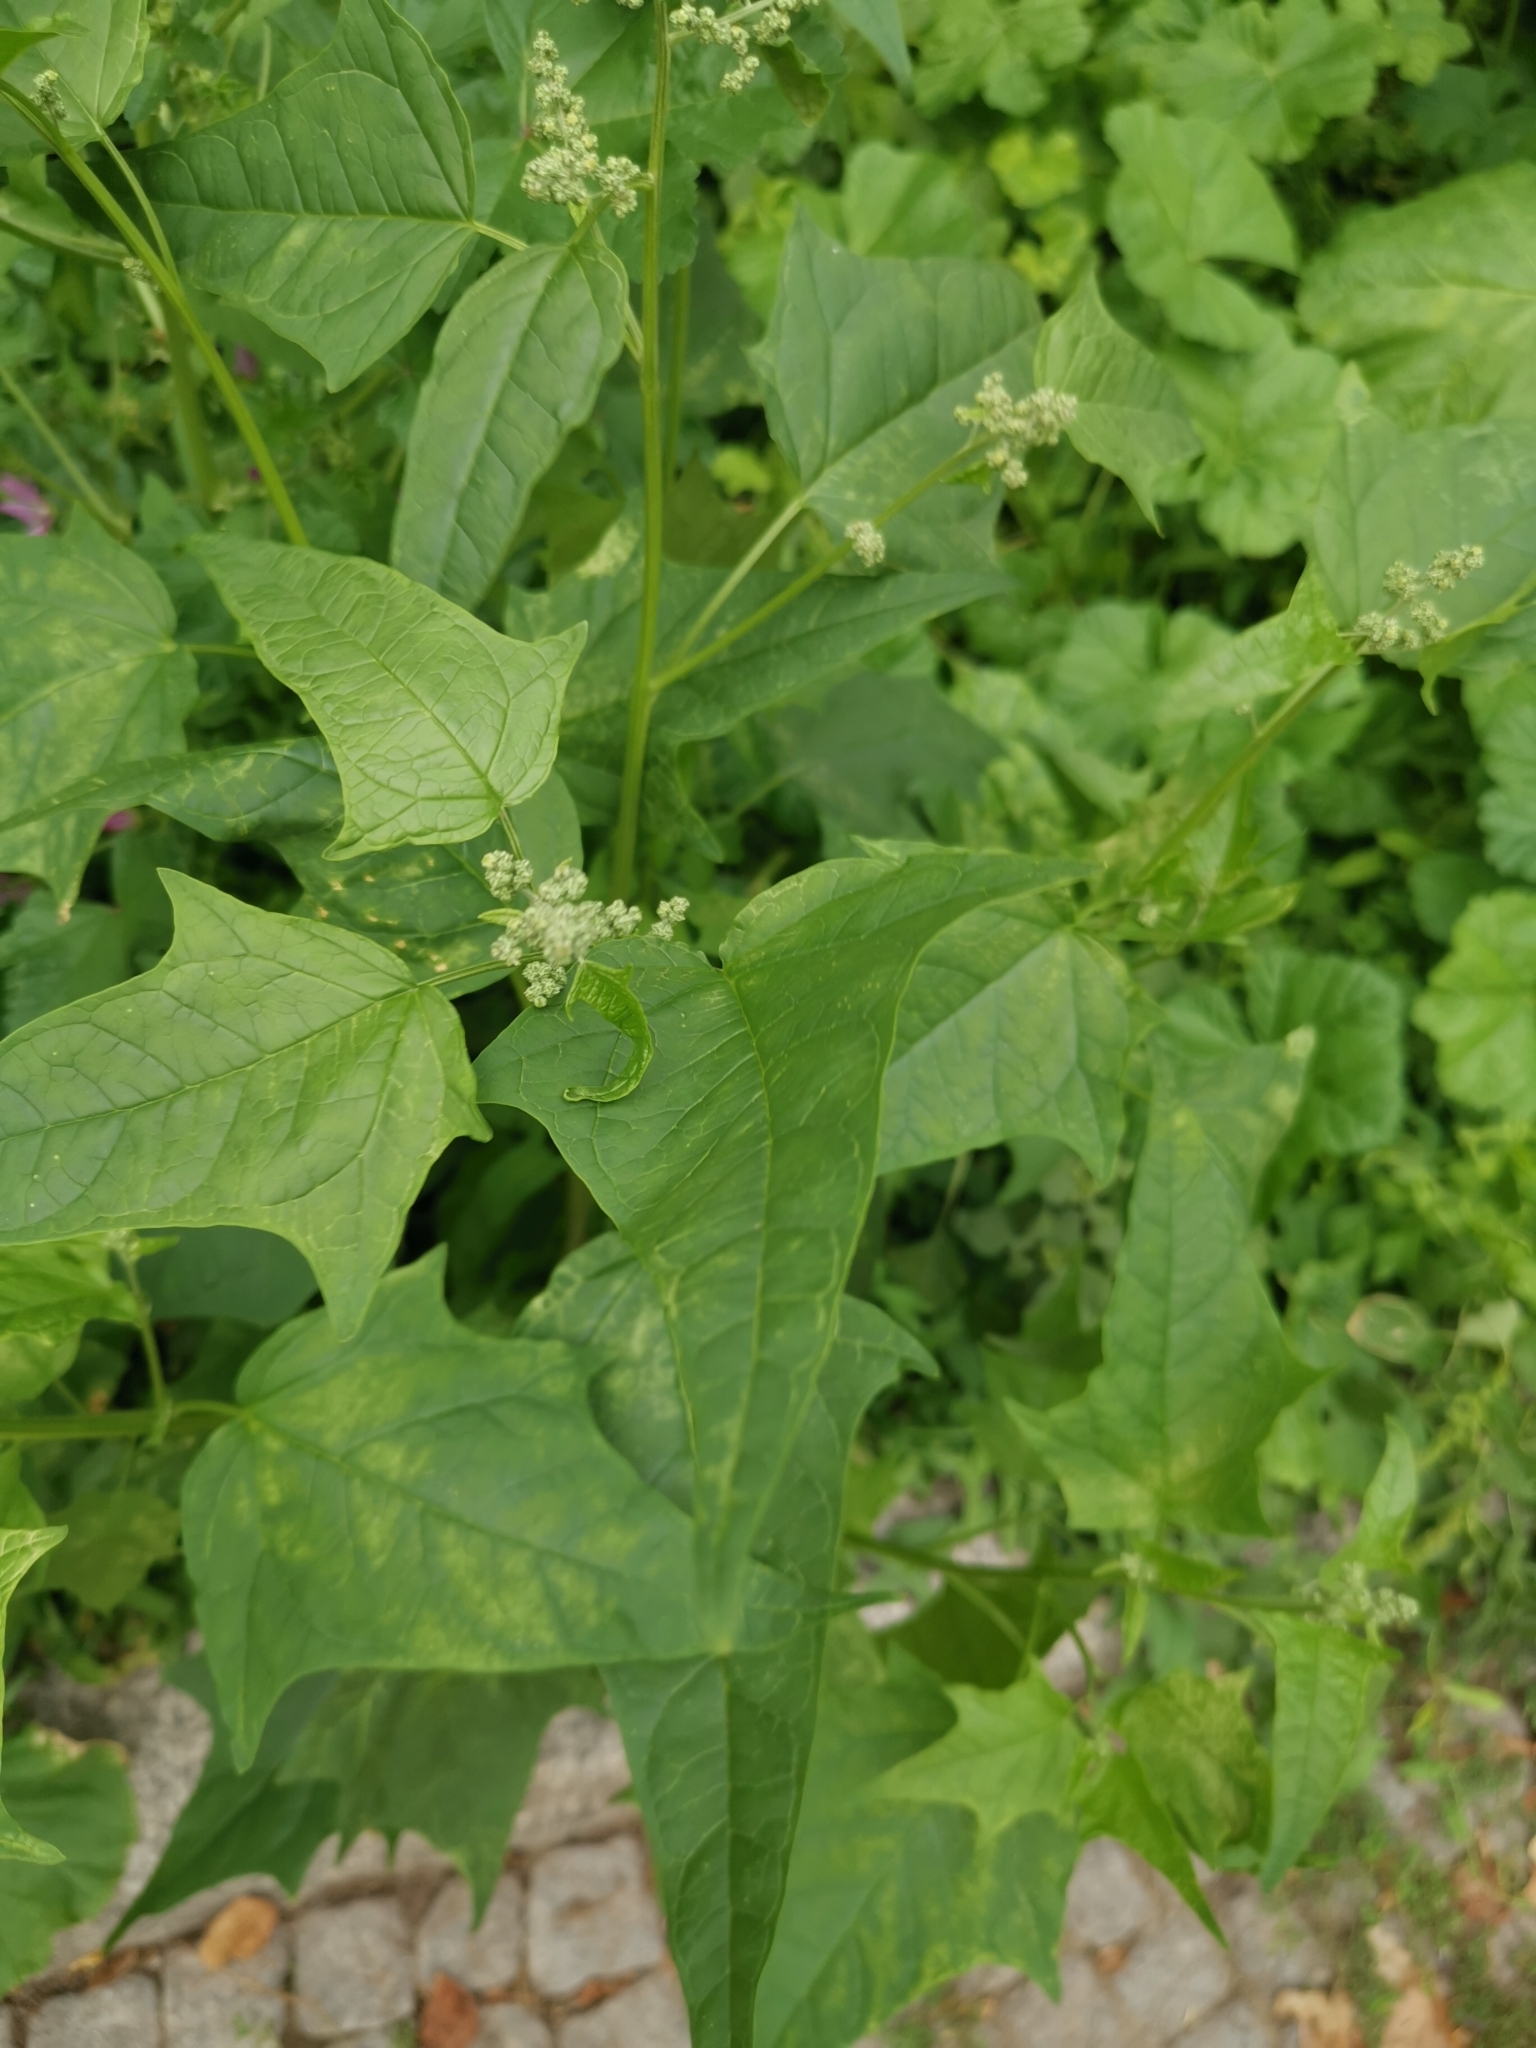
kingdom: Plantae
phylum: Tracheophyta
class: Magnoliopsida
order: Caryophyllales
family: Amaranthaceae
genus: Chenopodiastrum
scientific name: Chenopodiastrum hybridum
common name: Mapleleaf goosefoot
